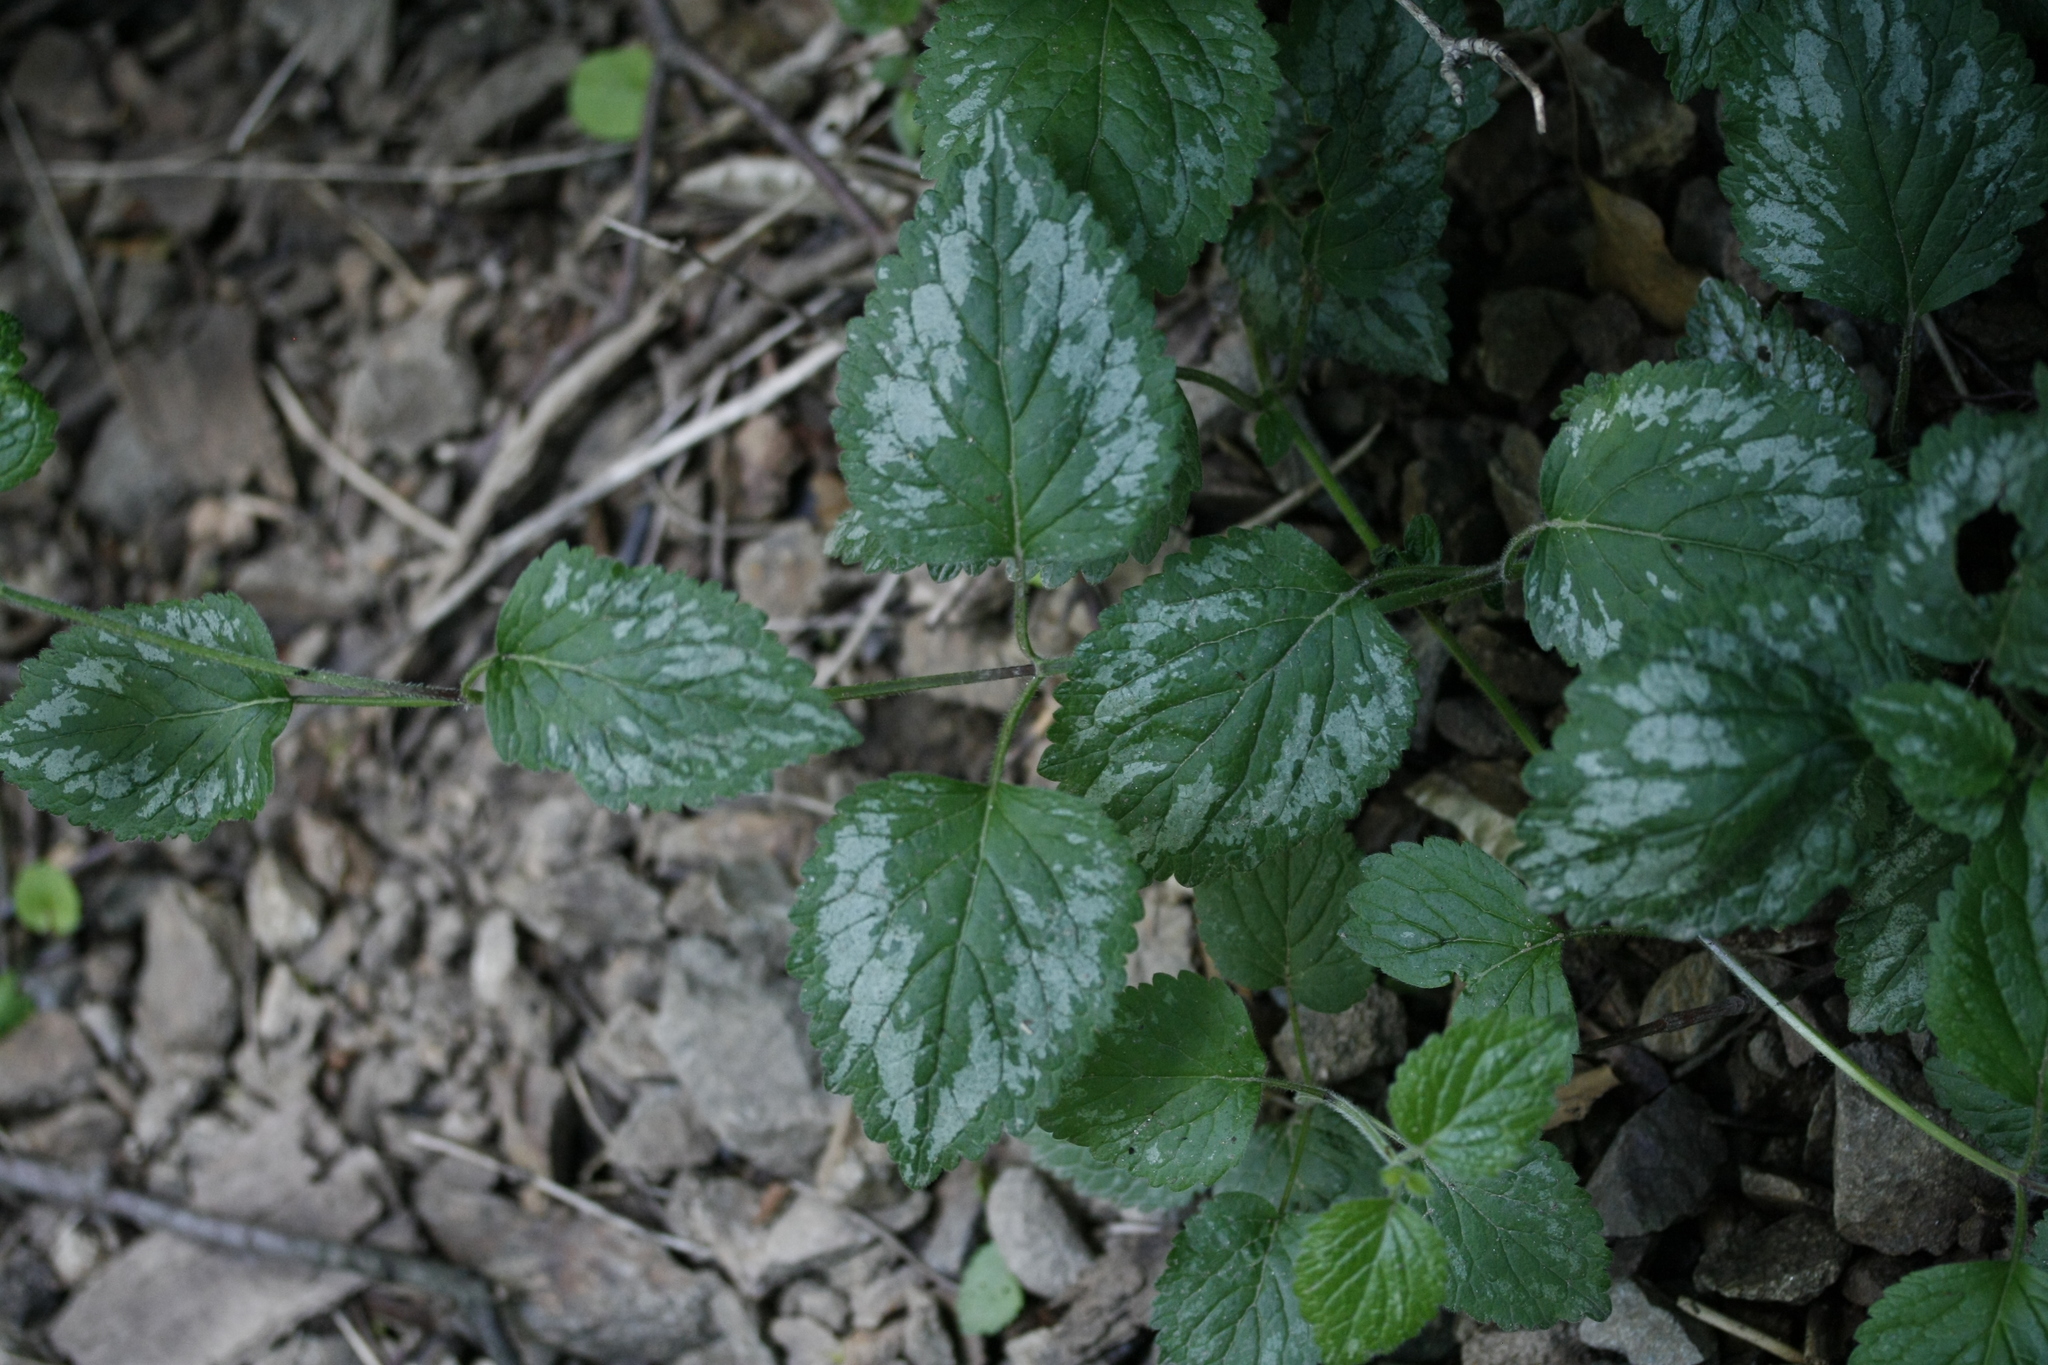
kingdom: Plantae
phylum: Tracheophyta
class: Magnoliopsida
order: Lamiales
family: Lamiaceae
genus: Lamium
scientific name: Lamium galeobdolon
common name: Yellow archangel
